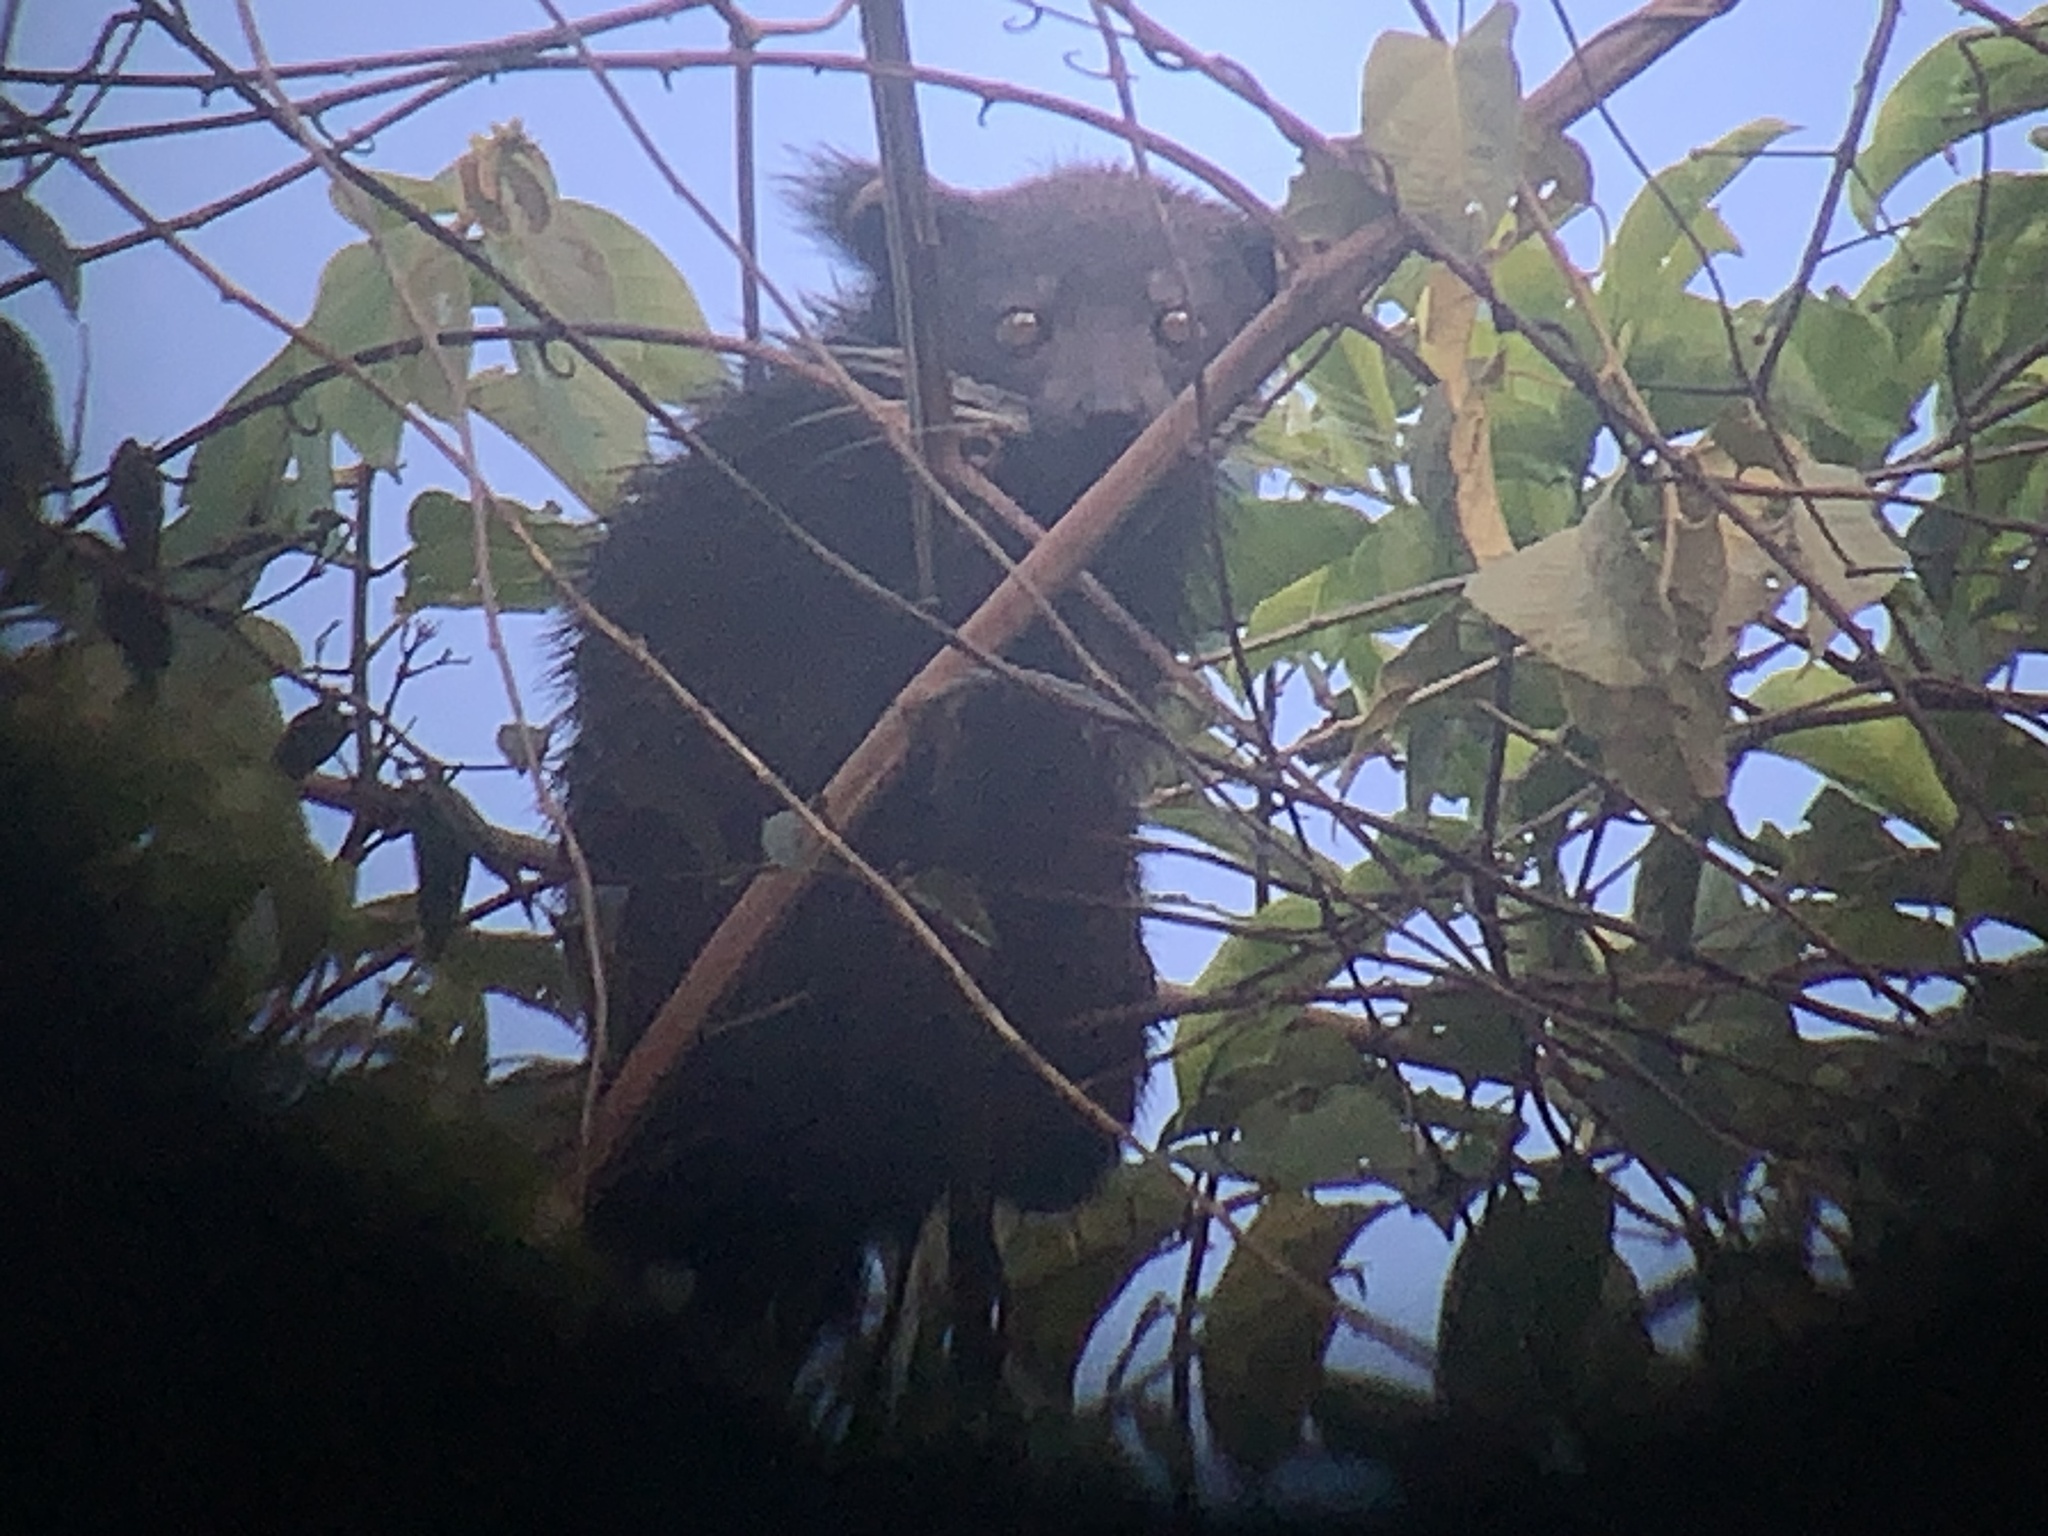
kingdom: Animalia
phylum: Chordata
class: Mammalia
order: Carnivora
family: Viverridae
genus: Arctictis
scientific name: Arctictis binturong
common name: Binturong
